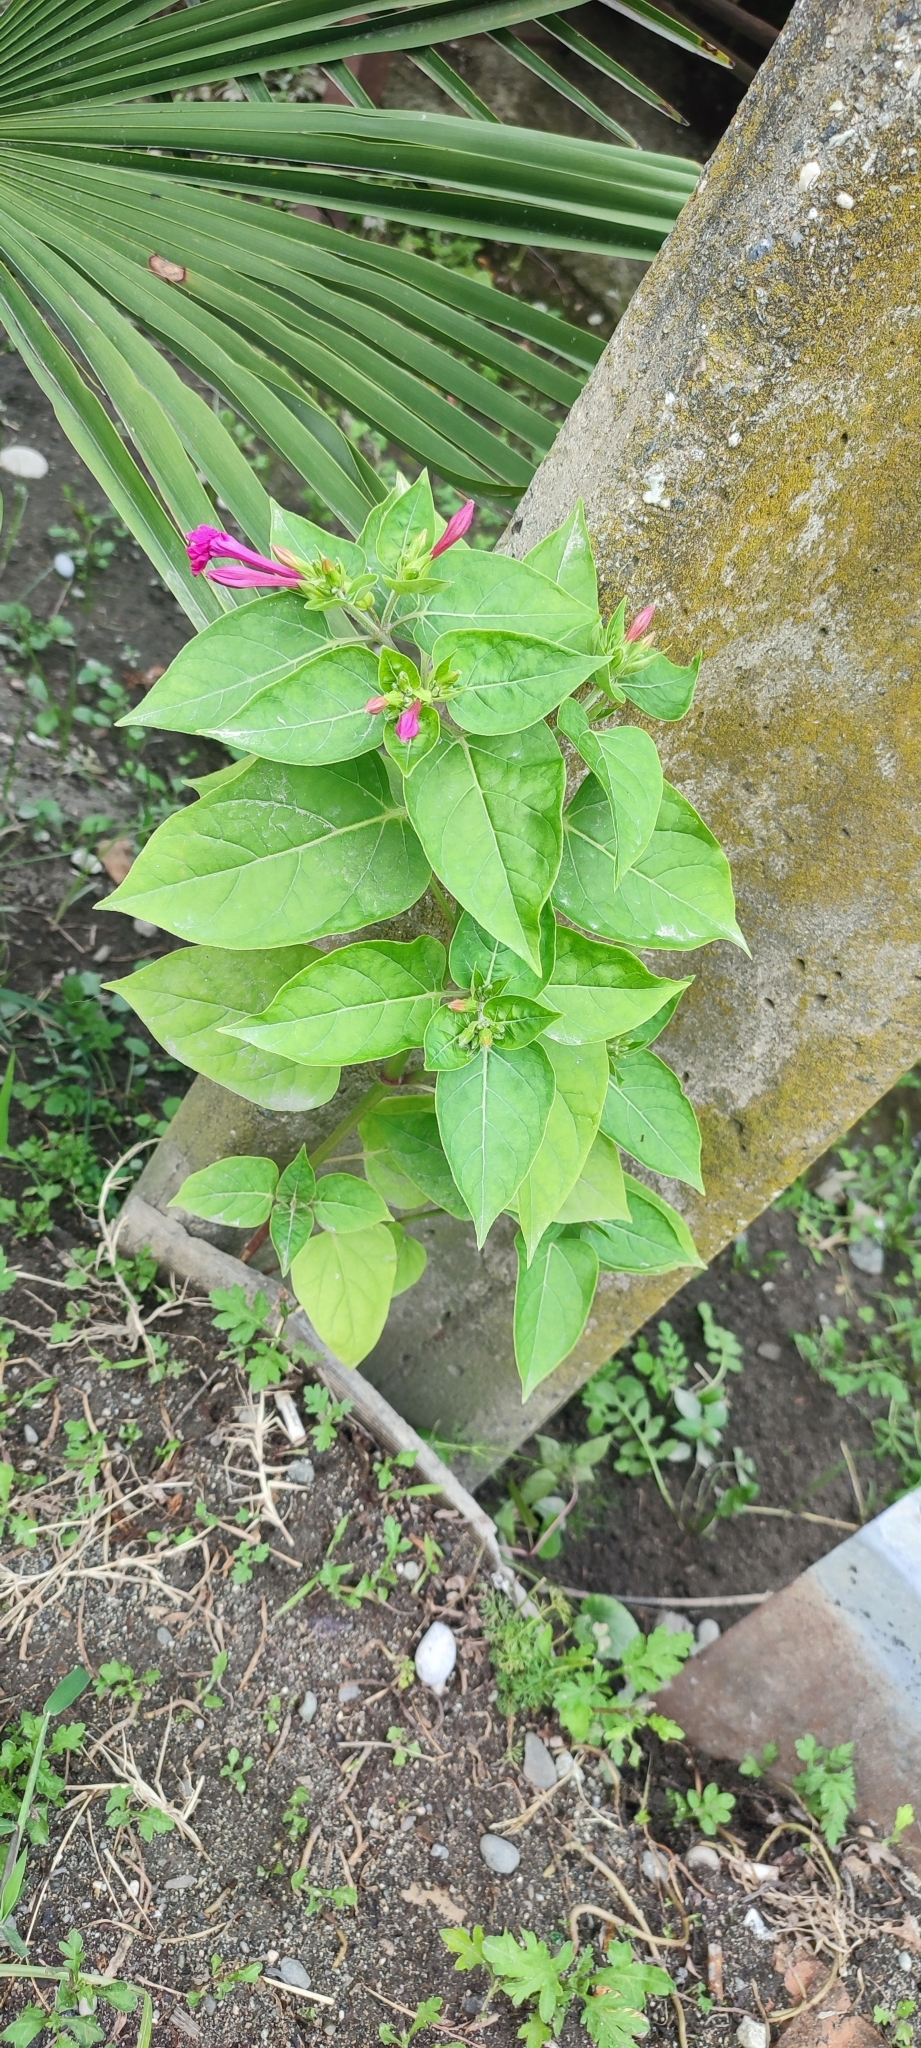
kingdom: Plantae
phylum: Tracheophyta
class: Magnoliopsida
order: Caryophyllales
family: Nyctaginaceae
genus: Mirabilis
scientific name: Mirabilis jalapa
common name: Marvel-of-peru
